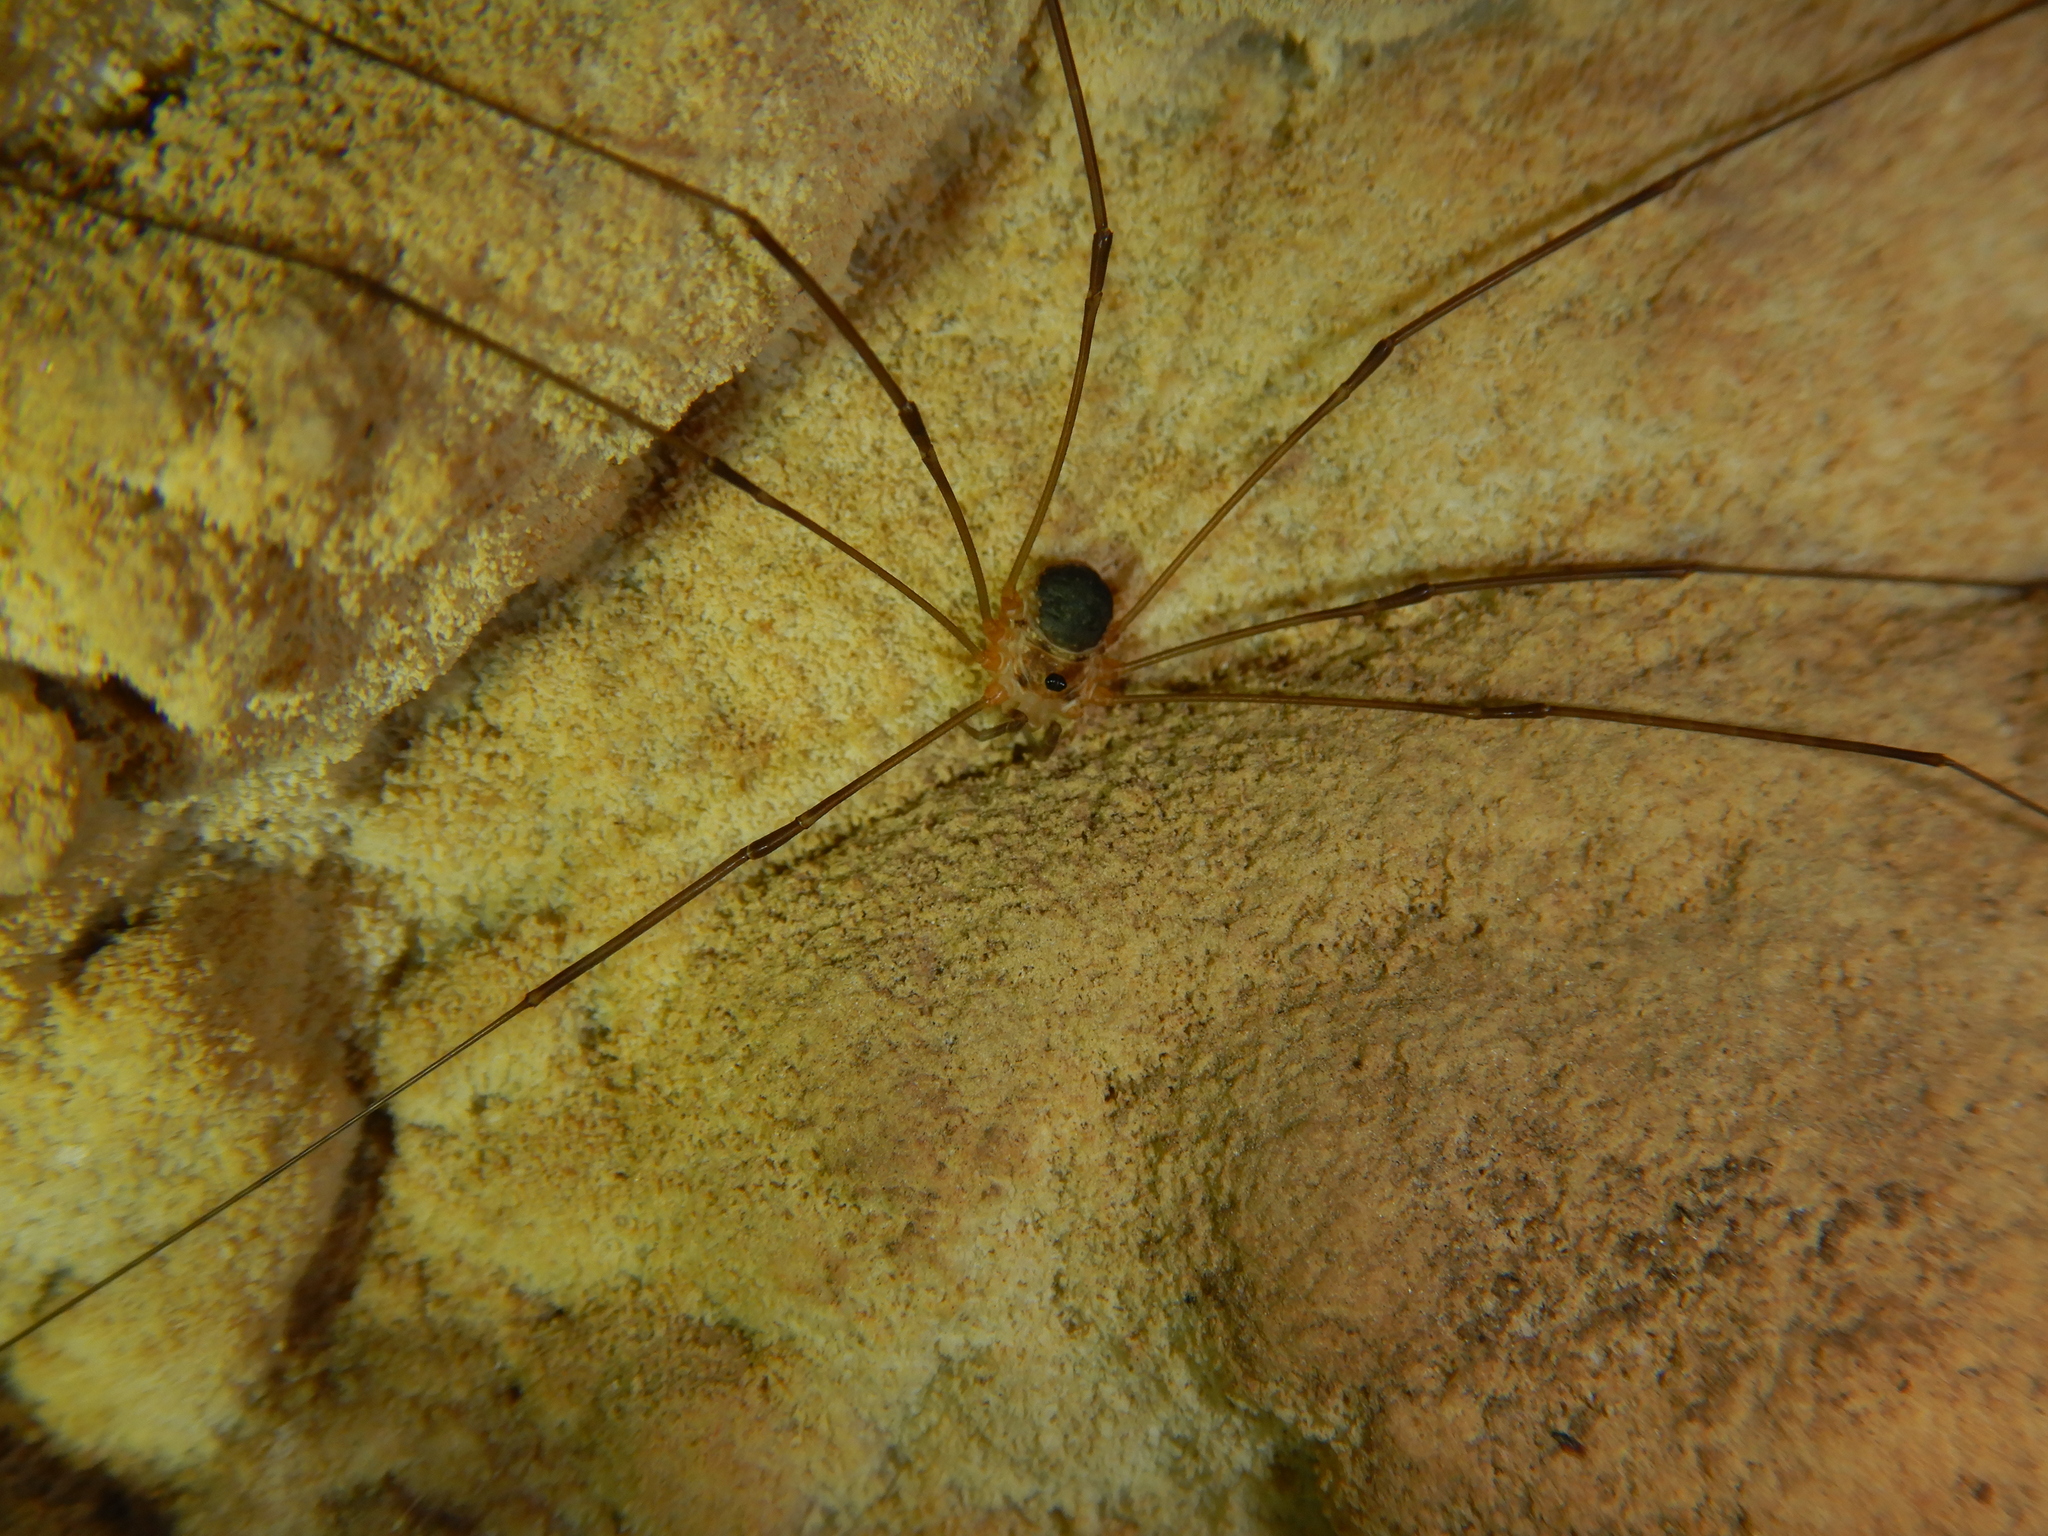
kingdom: Animalia
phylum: Arthropoda
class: Arachnida
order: Opiliones
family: Phalangiidae
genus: Amilenus
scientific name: Amilenus aurantiacus
